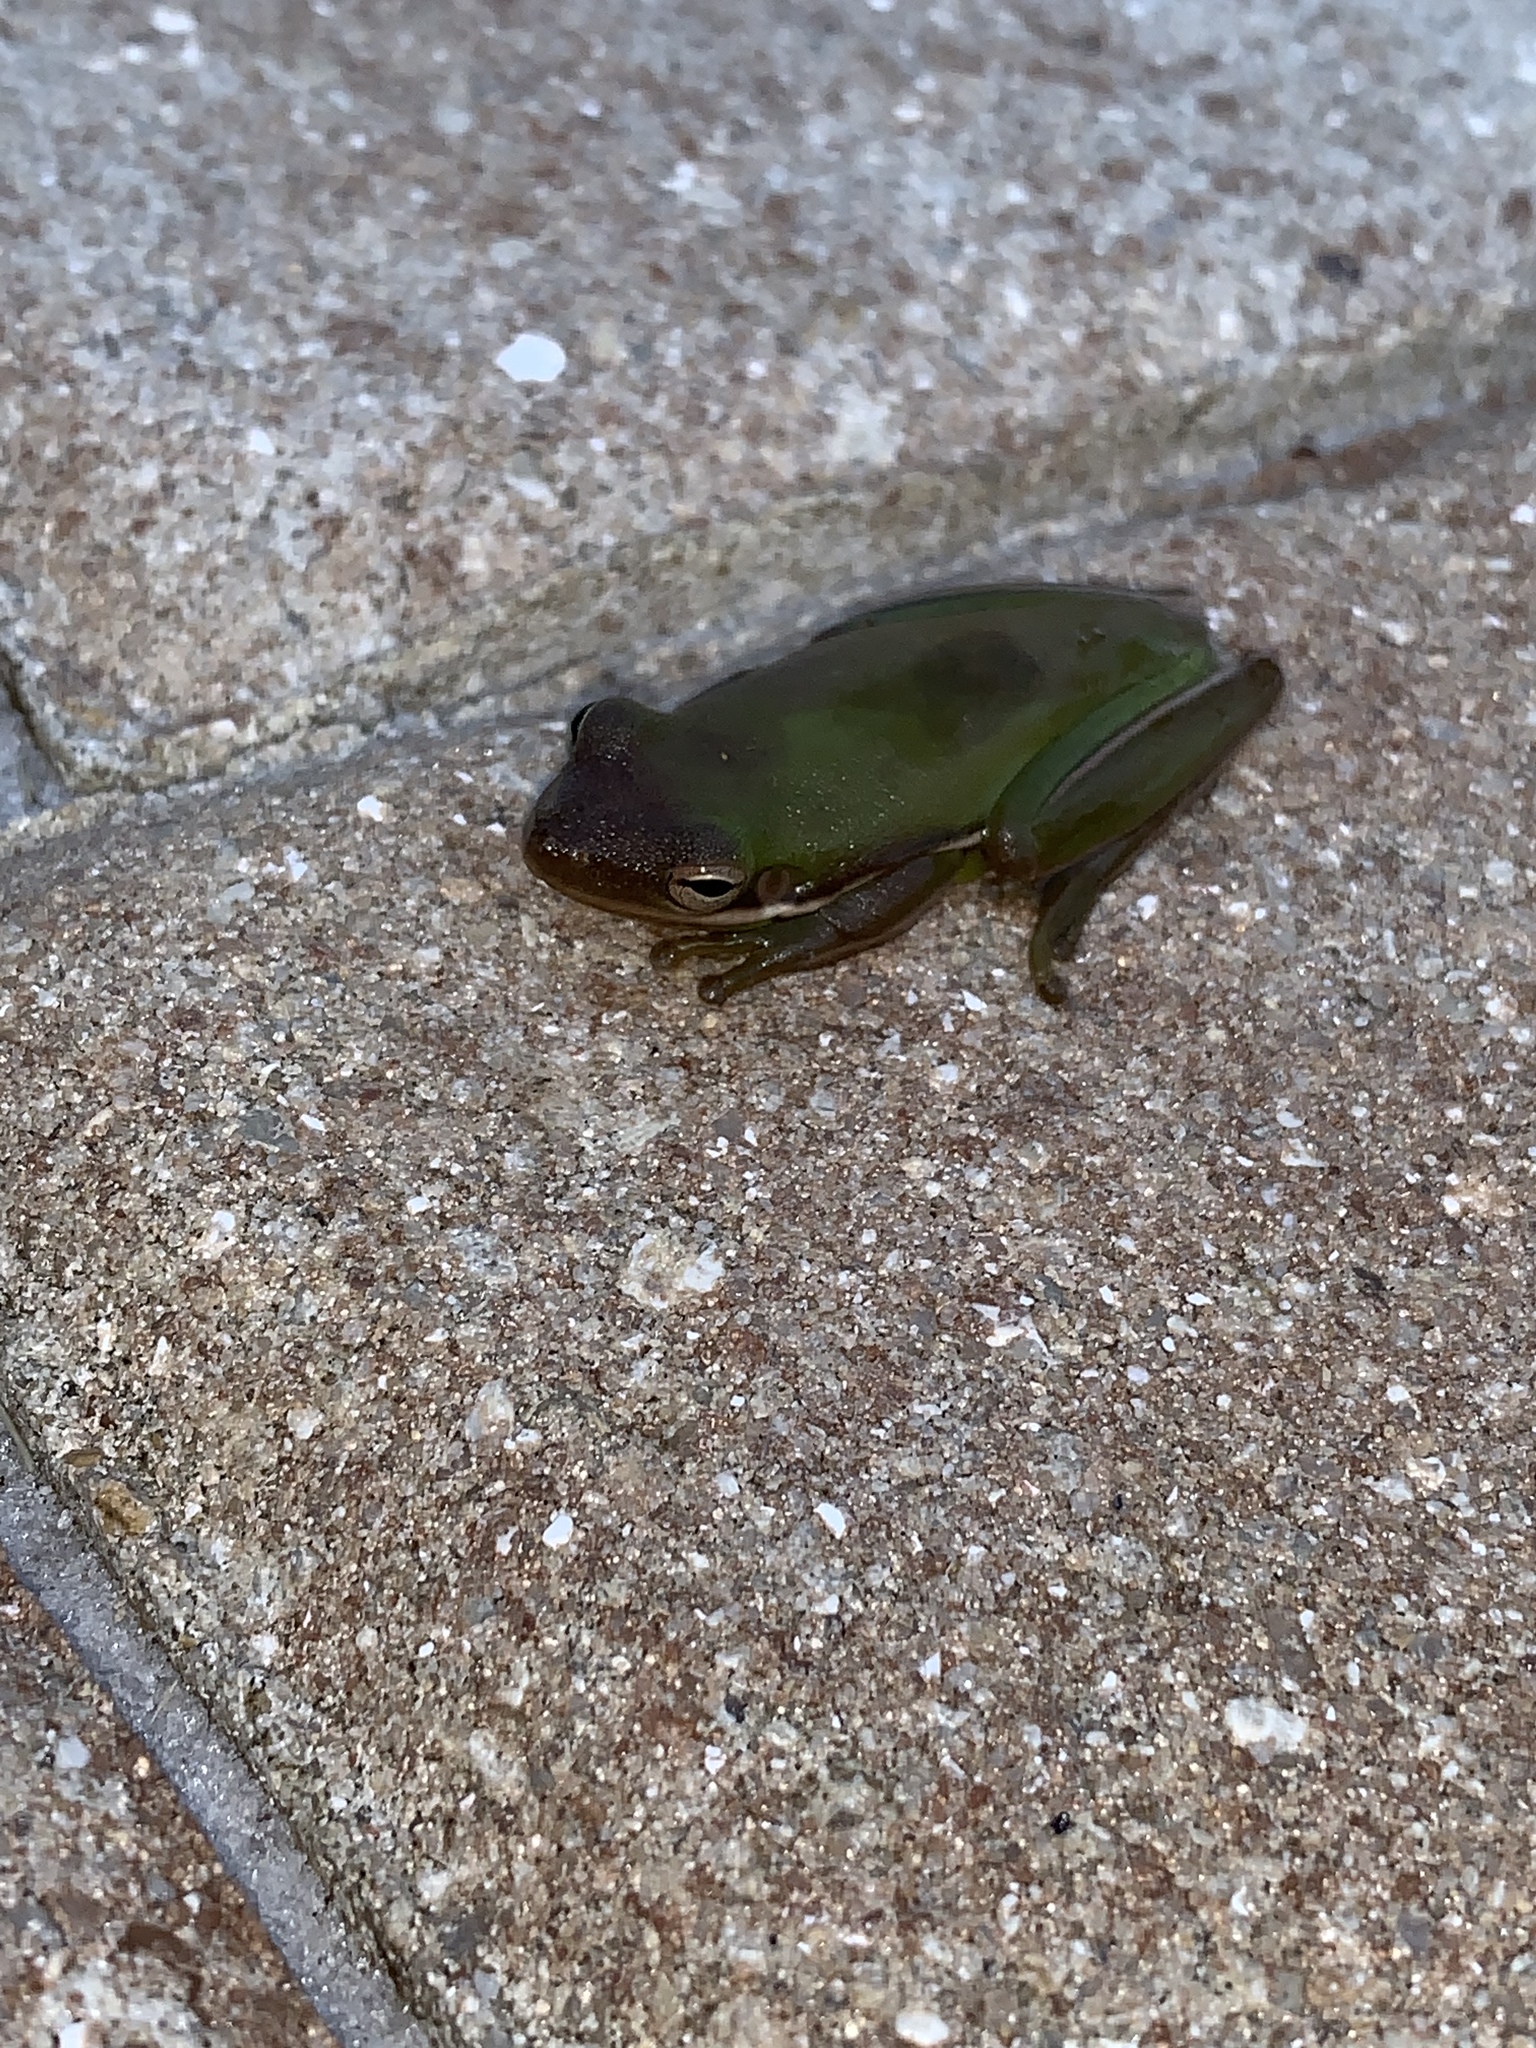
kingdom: Animalia
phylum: Chordata
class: Amphibia
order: Anura
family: Hylidae
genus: Dryophytes
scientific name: Dryophytes cinereus
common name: Green treefrog
